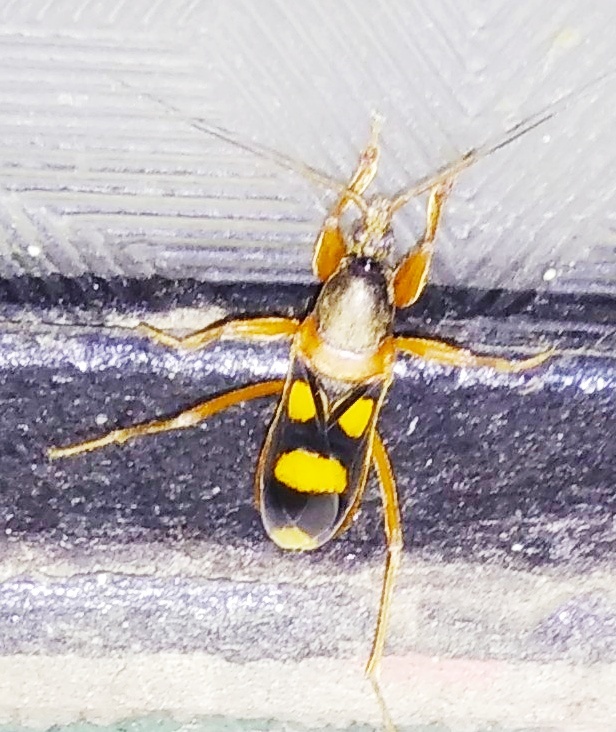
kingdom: Animalia
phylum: Arthropoda
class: Insecta
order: Hemiptera
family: Reduviidae
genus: Ectomocoris
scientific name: Ectomocoris quadriguttatus
